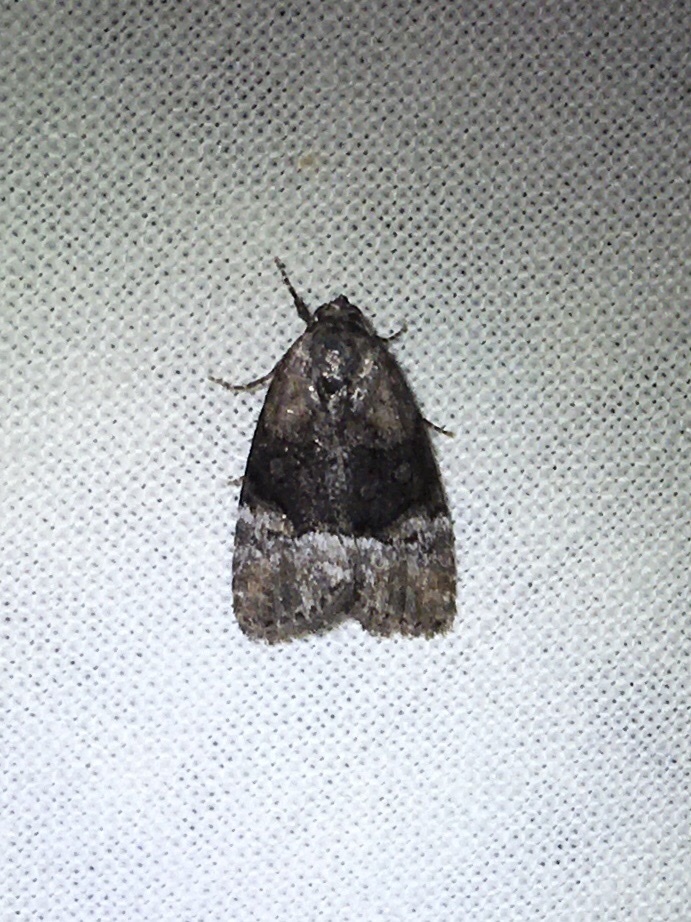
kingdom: Animalia
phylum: Arthropoda
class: Insecta
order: Lepidoptera
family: Noctuidae
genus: Elaphria
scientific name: Elaphria georgei
